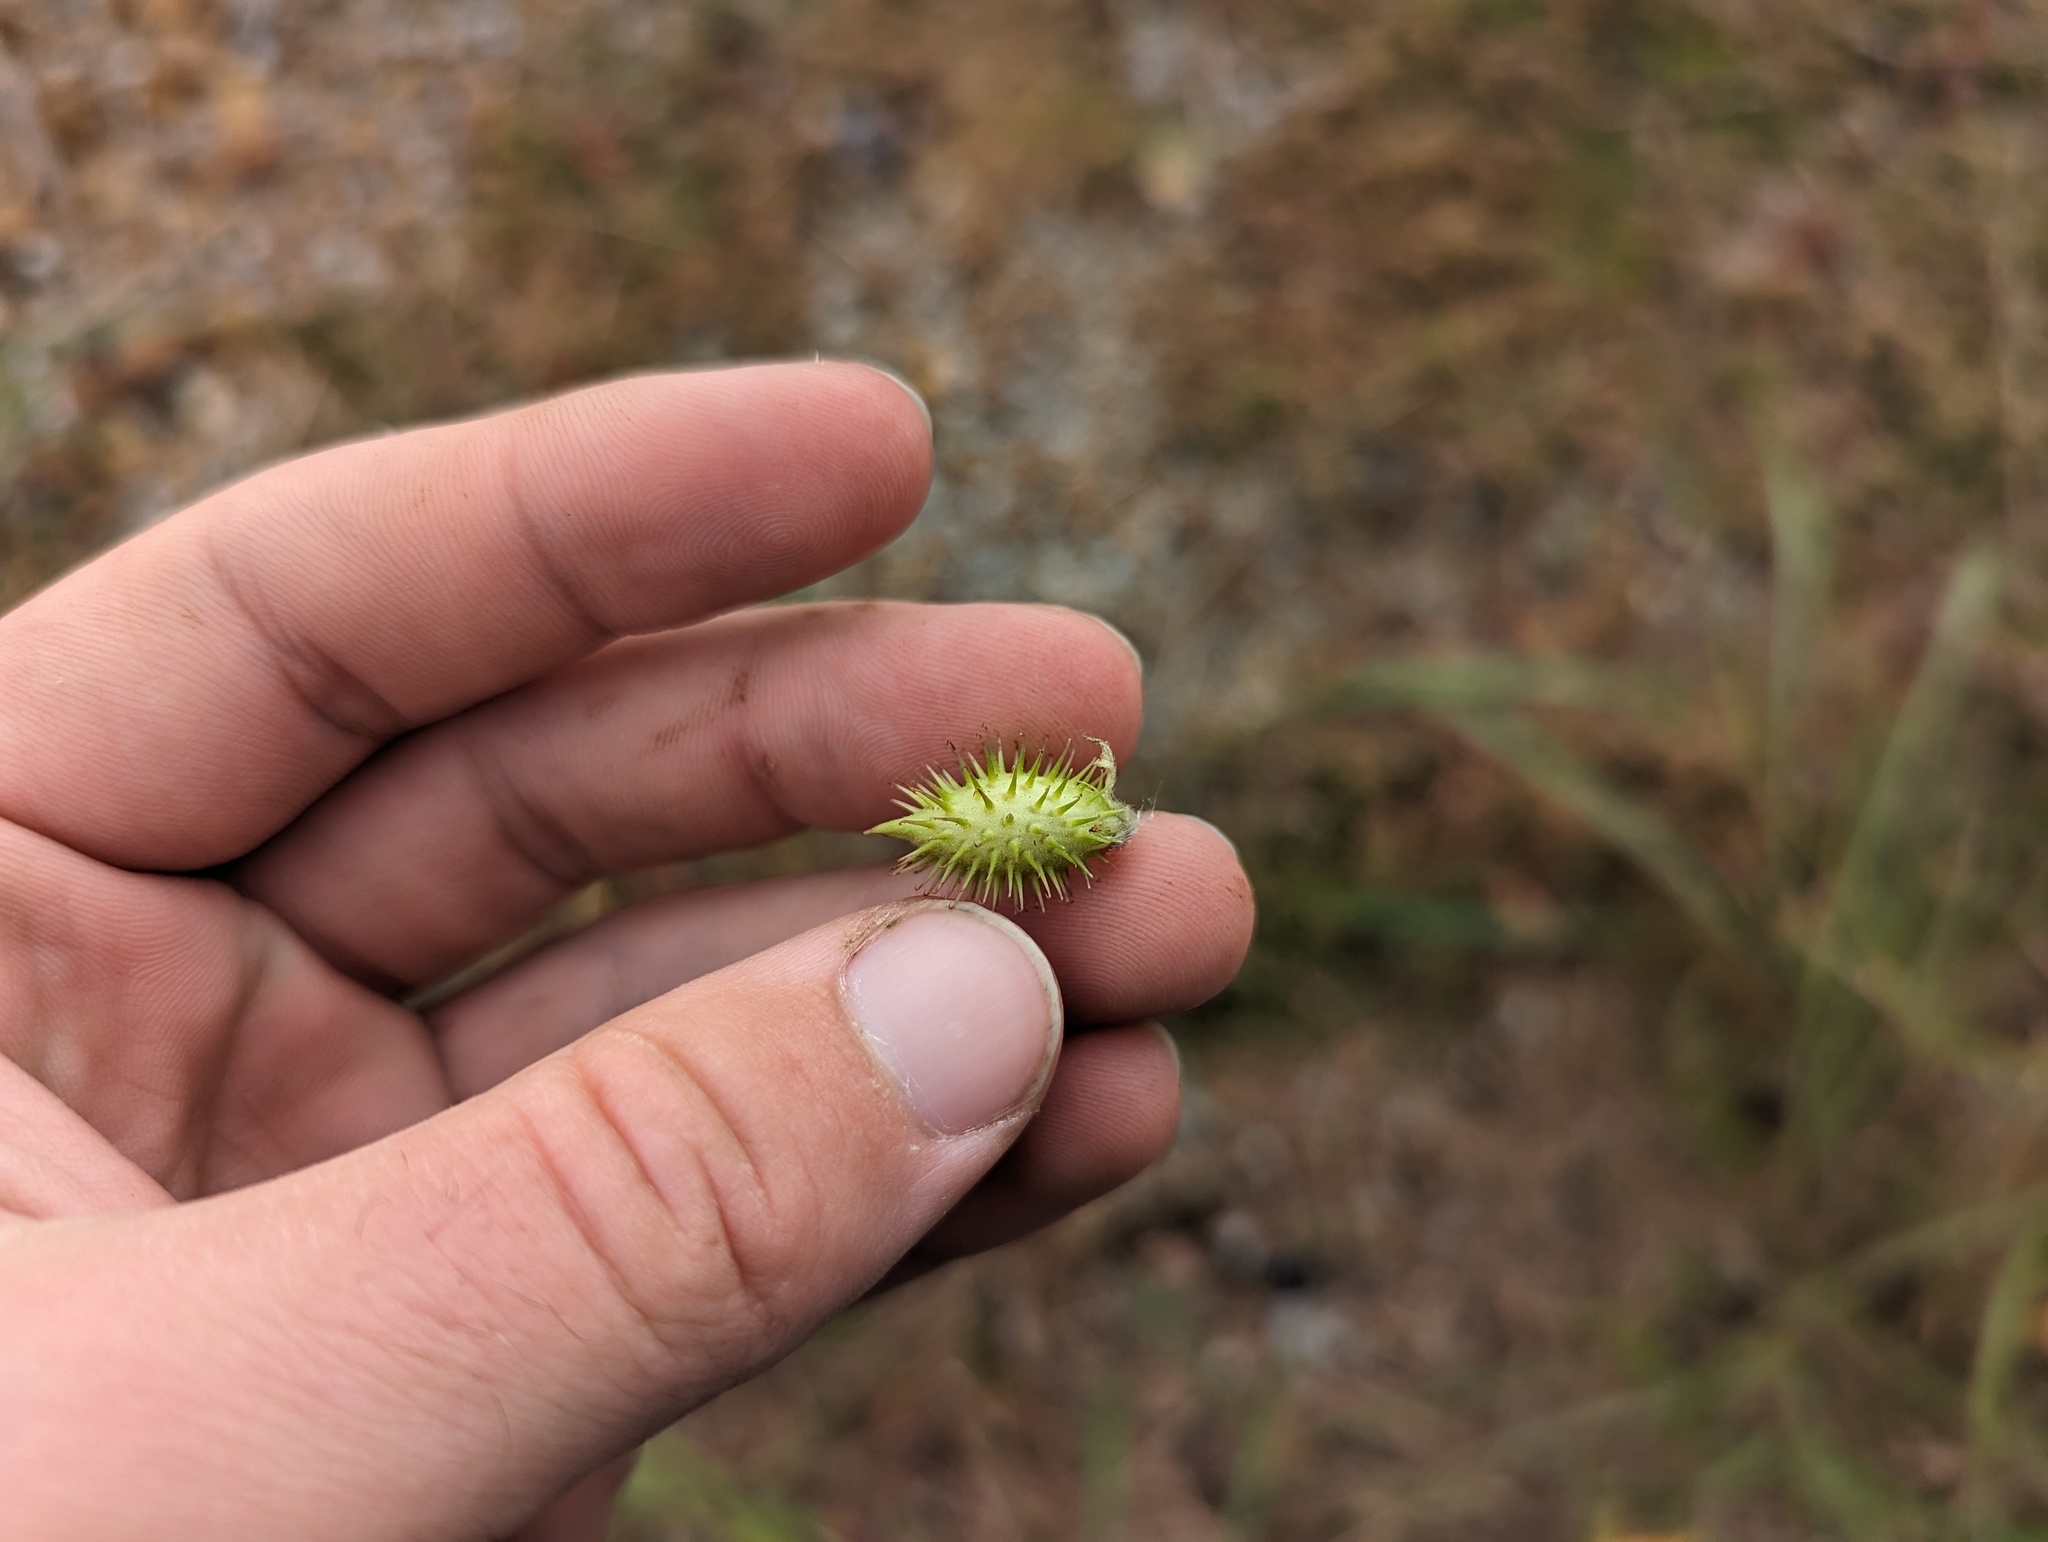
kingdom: Plantae
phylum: Tracheophyta
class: Magnoliopsida
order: Asterales
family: Asteraceae
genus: Xanthium
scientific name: Xanthium strumarium
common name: Rough cocklebur
